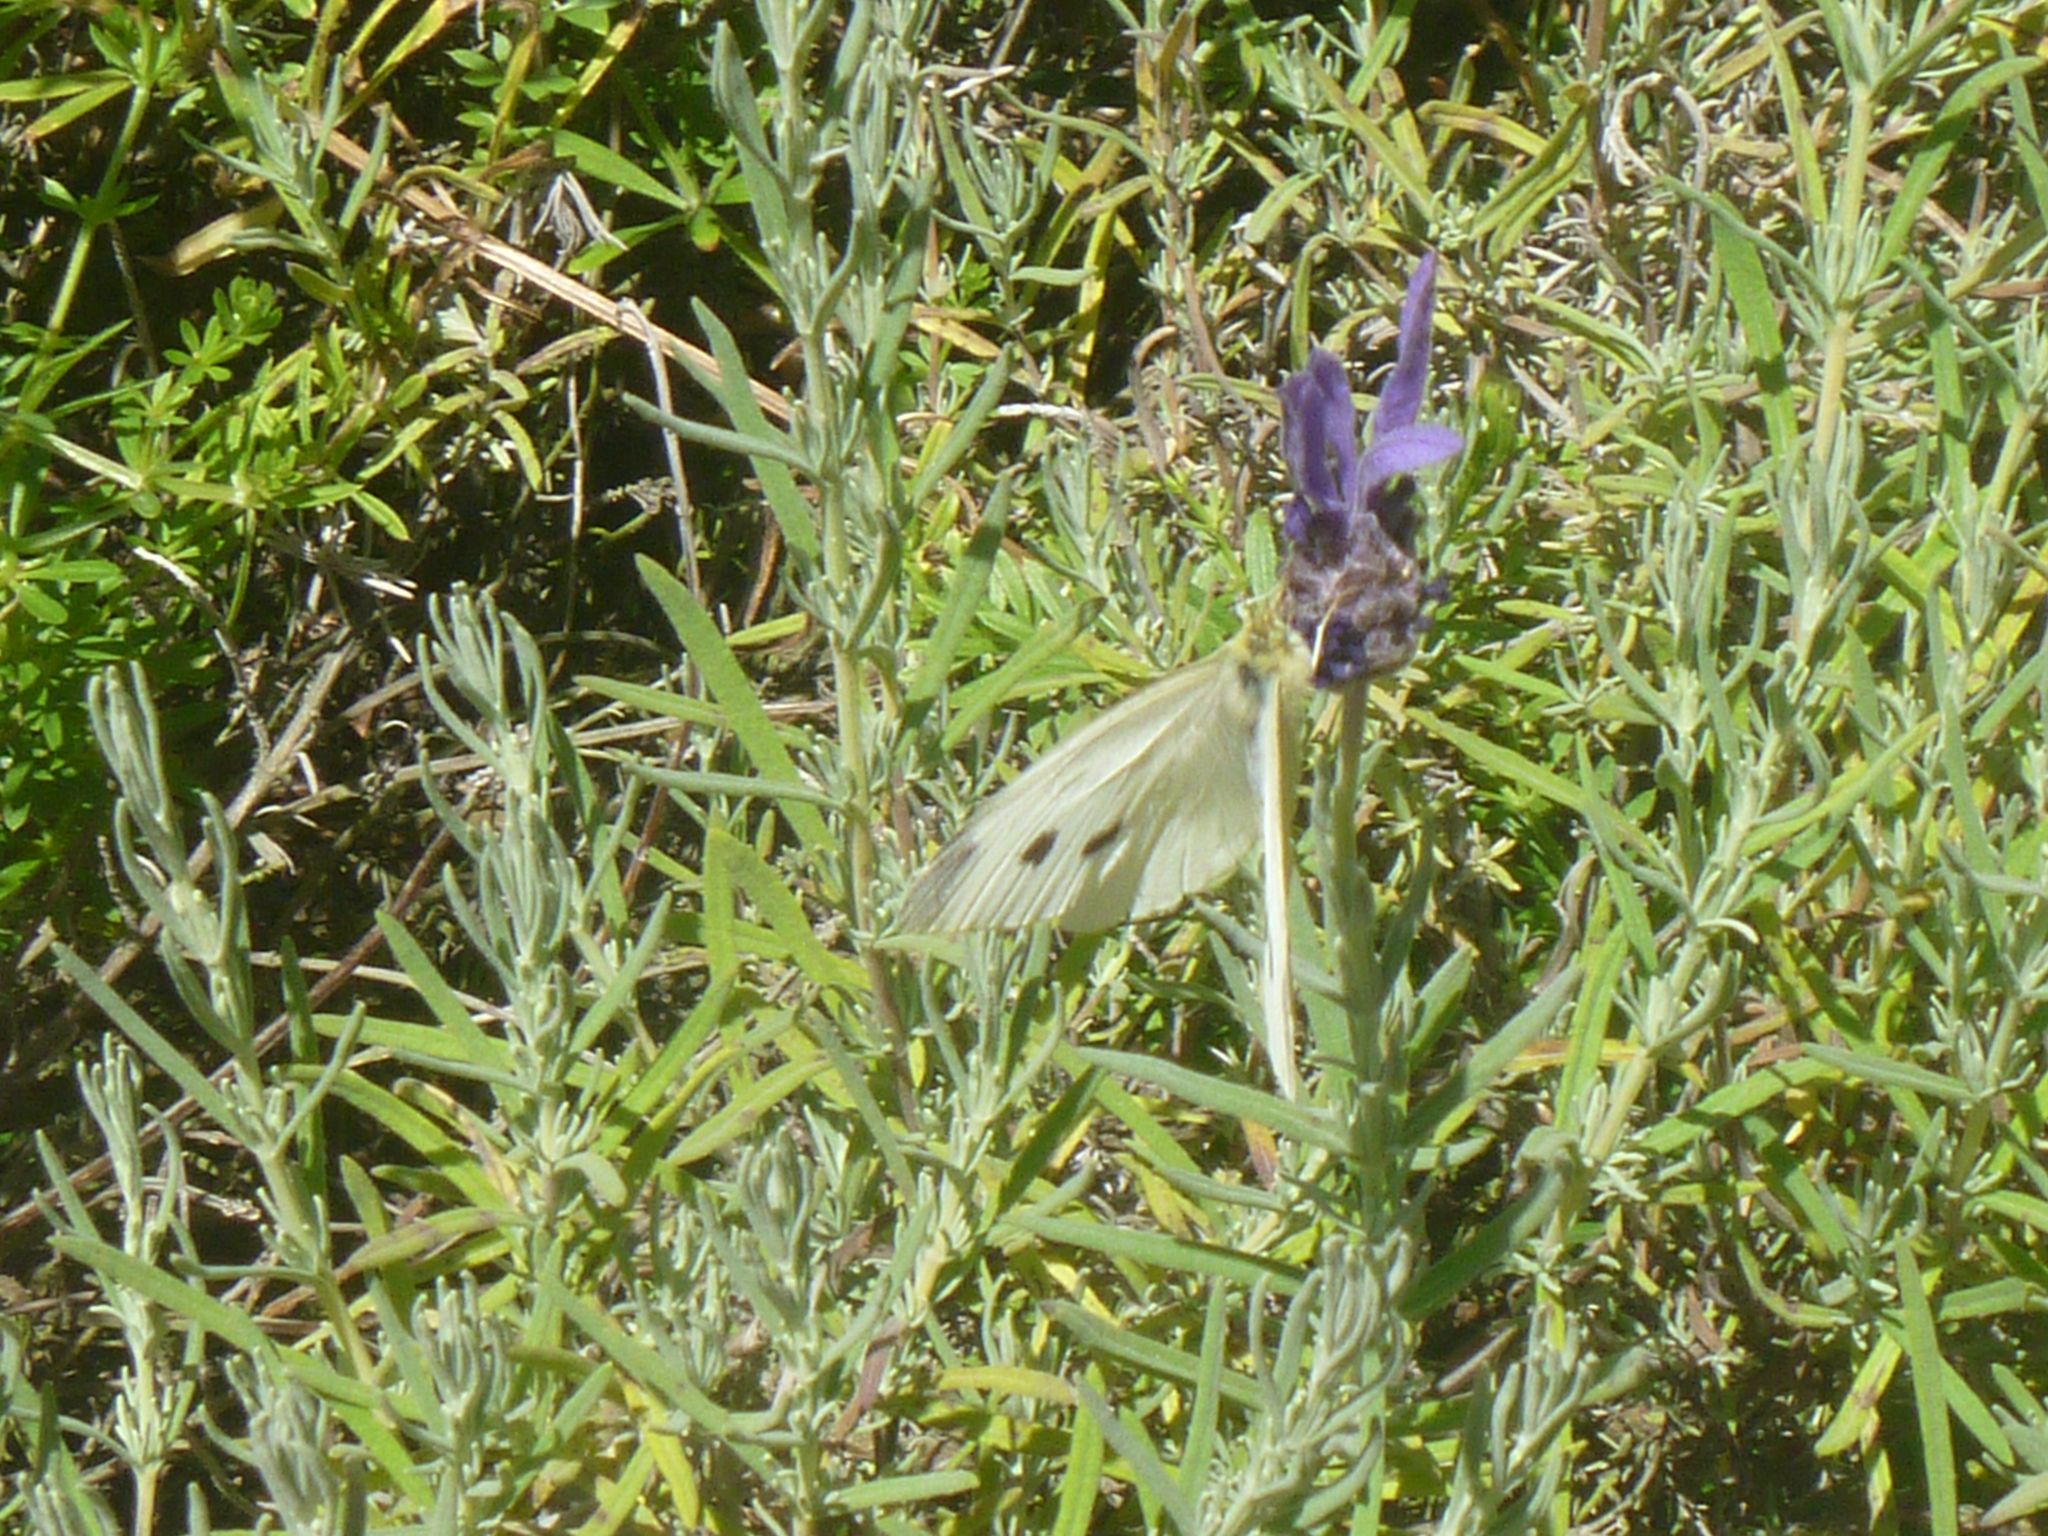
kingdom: Animalia
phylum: Arthropoda
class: Insecta
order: Lepidoptera
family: Pieridae
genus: Pieris
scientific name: Pieris rapae
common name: Small white
